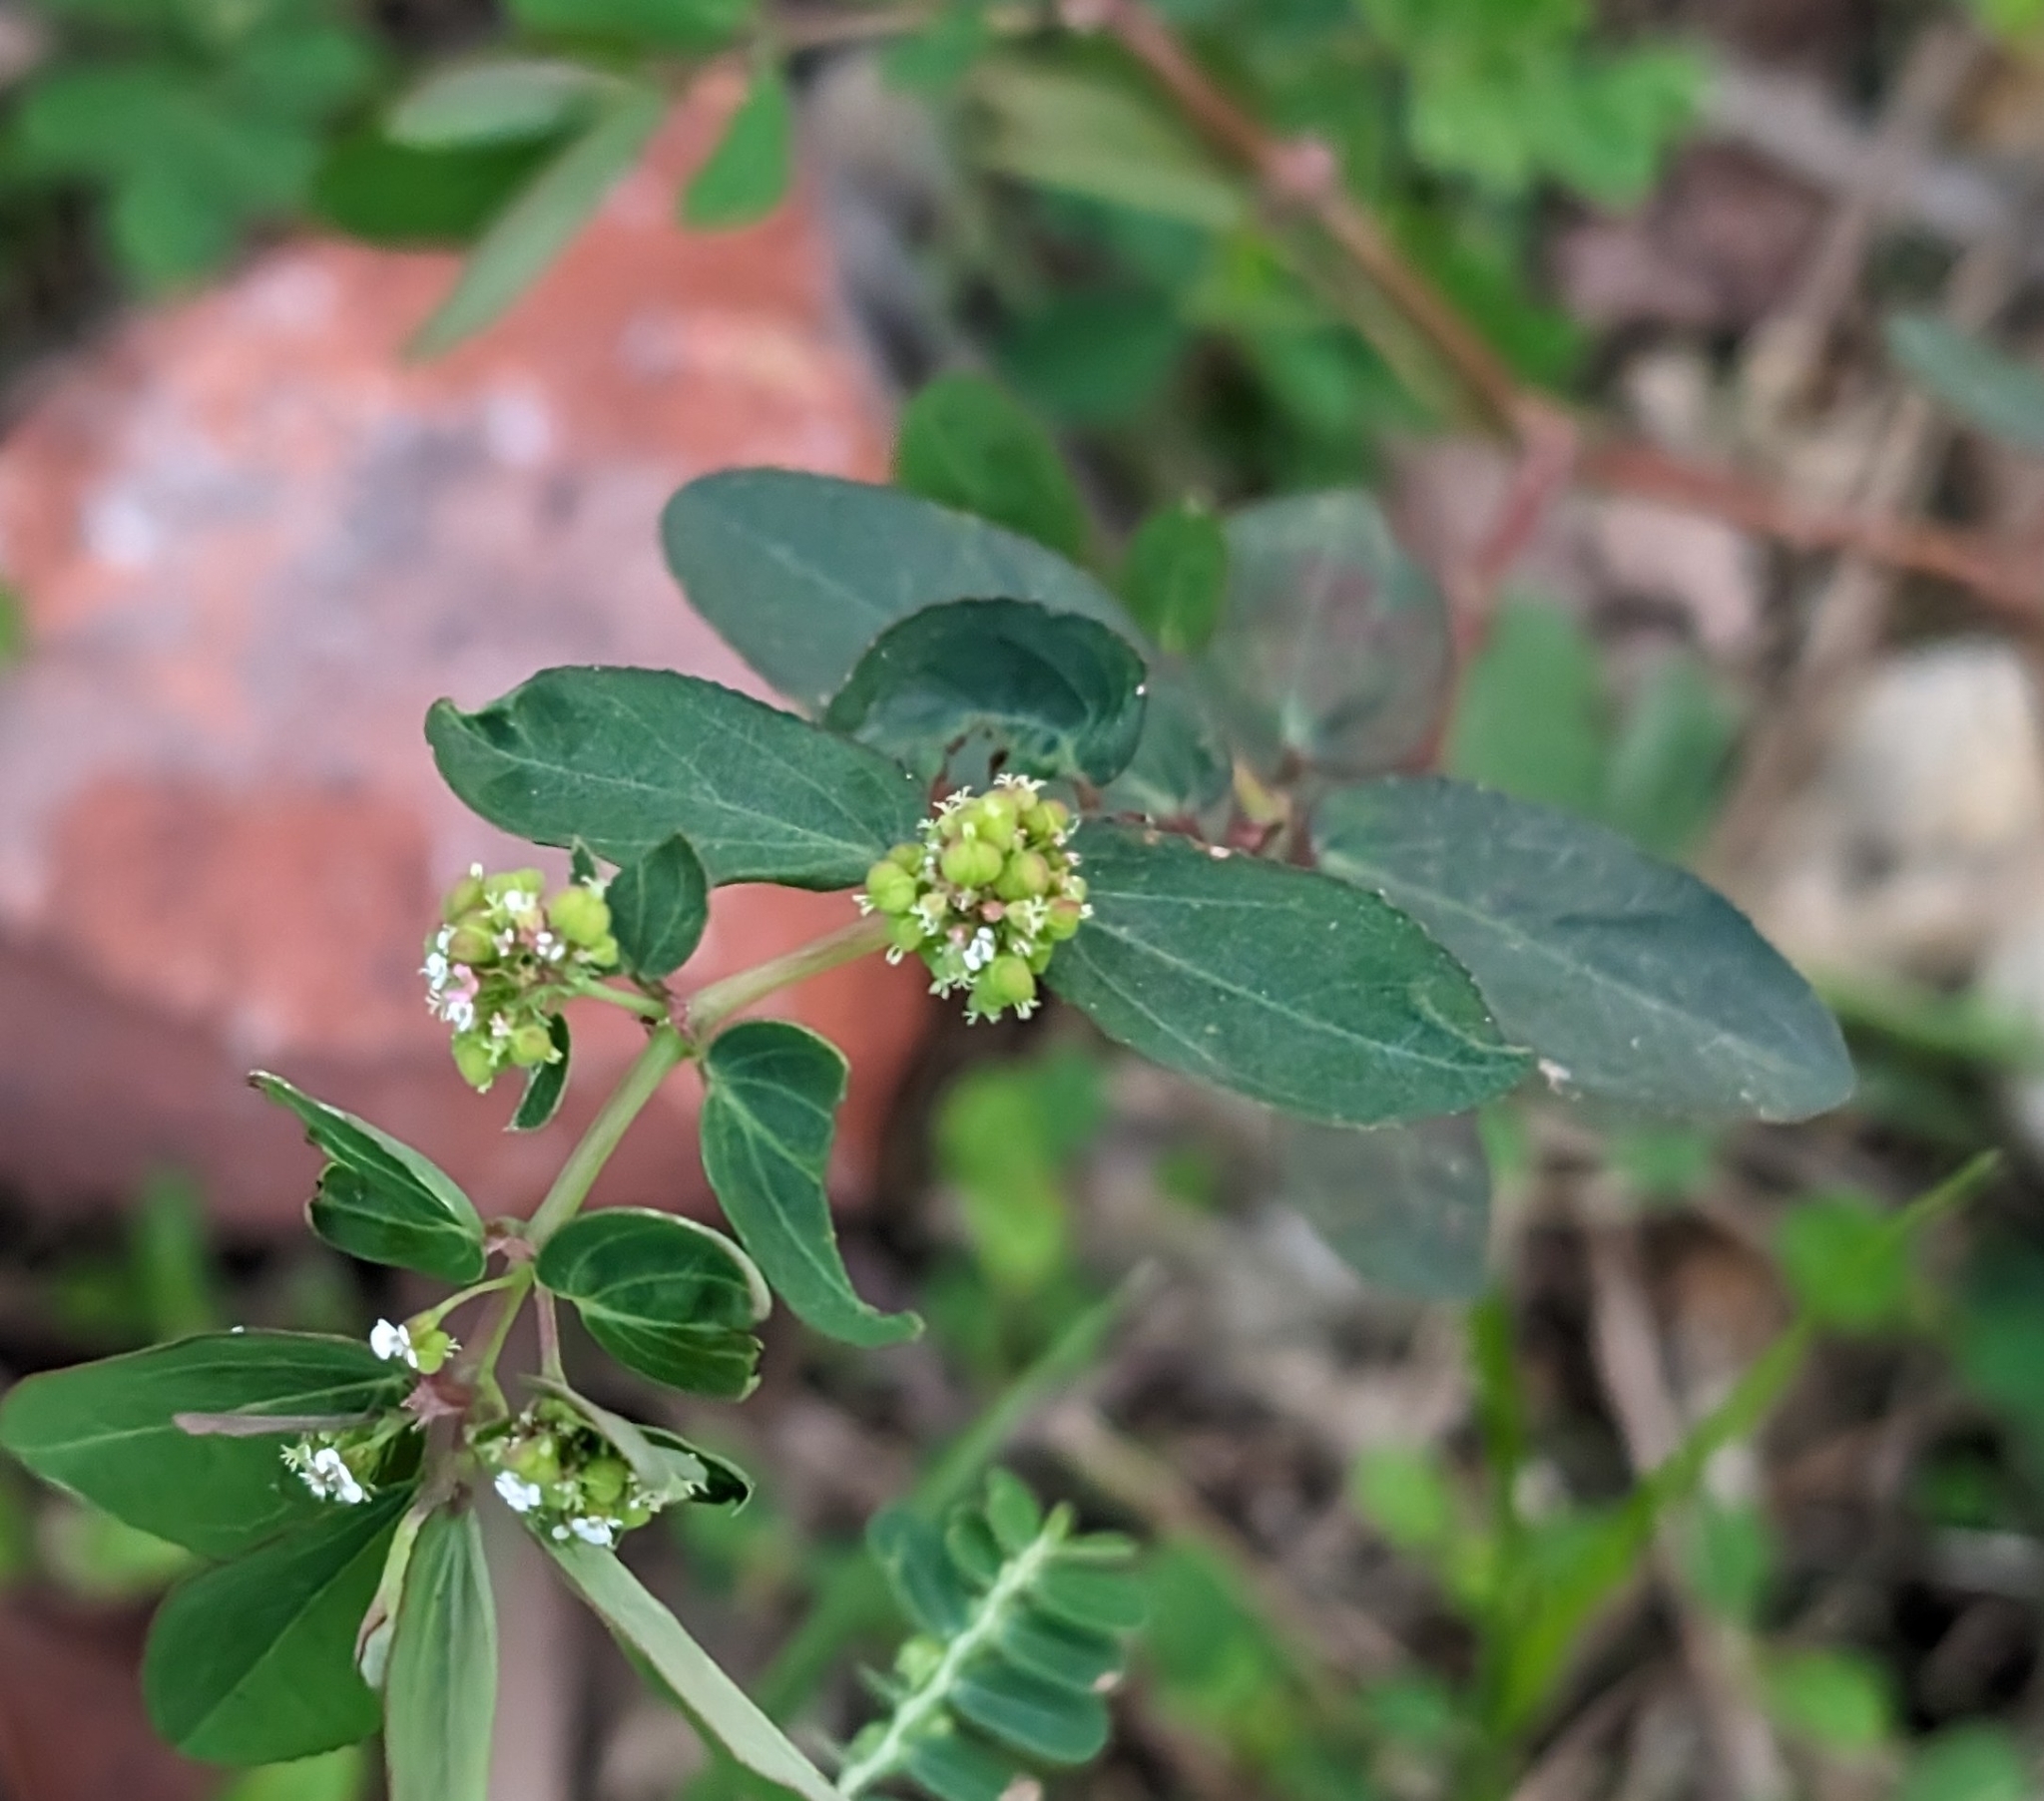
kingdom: Plantae
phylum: Tracheophyta
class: Magnoliopsida
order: Malpighiales
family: Euphorbiaceae
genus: Euphorbia
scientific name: Euphorbia hypericifolia
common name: Graceful sandmat
